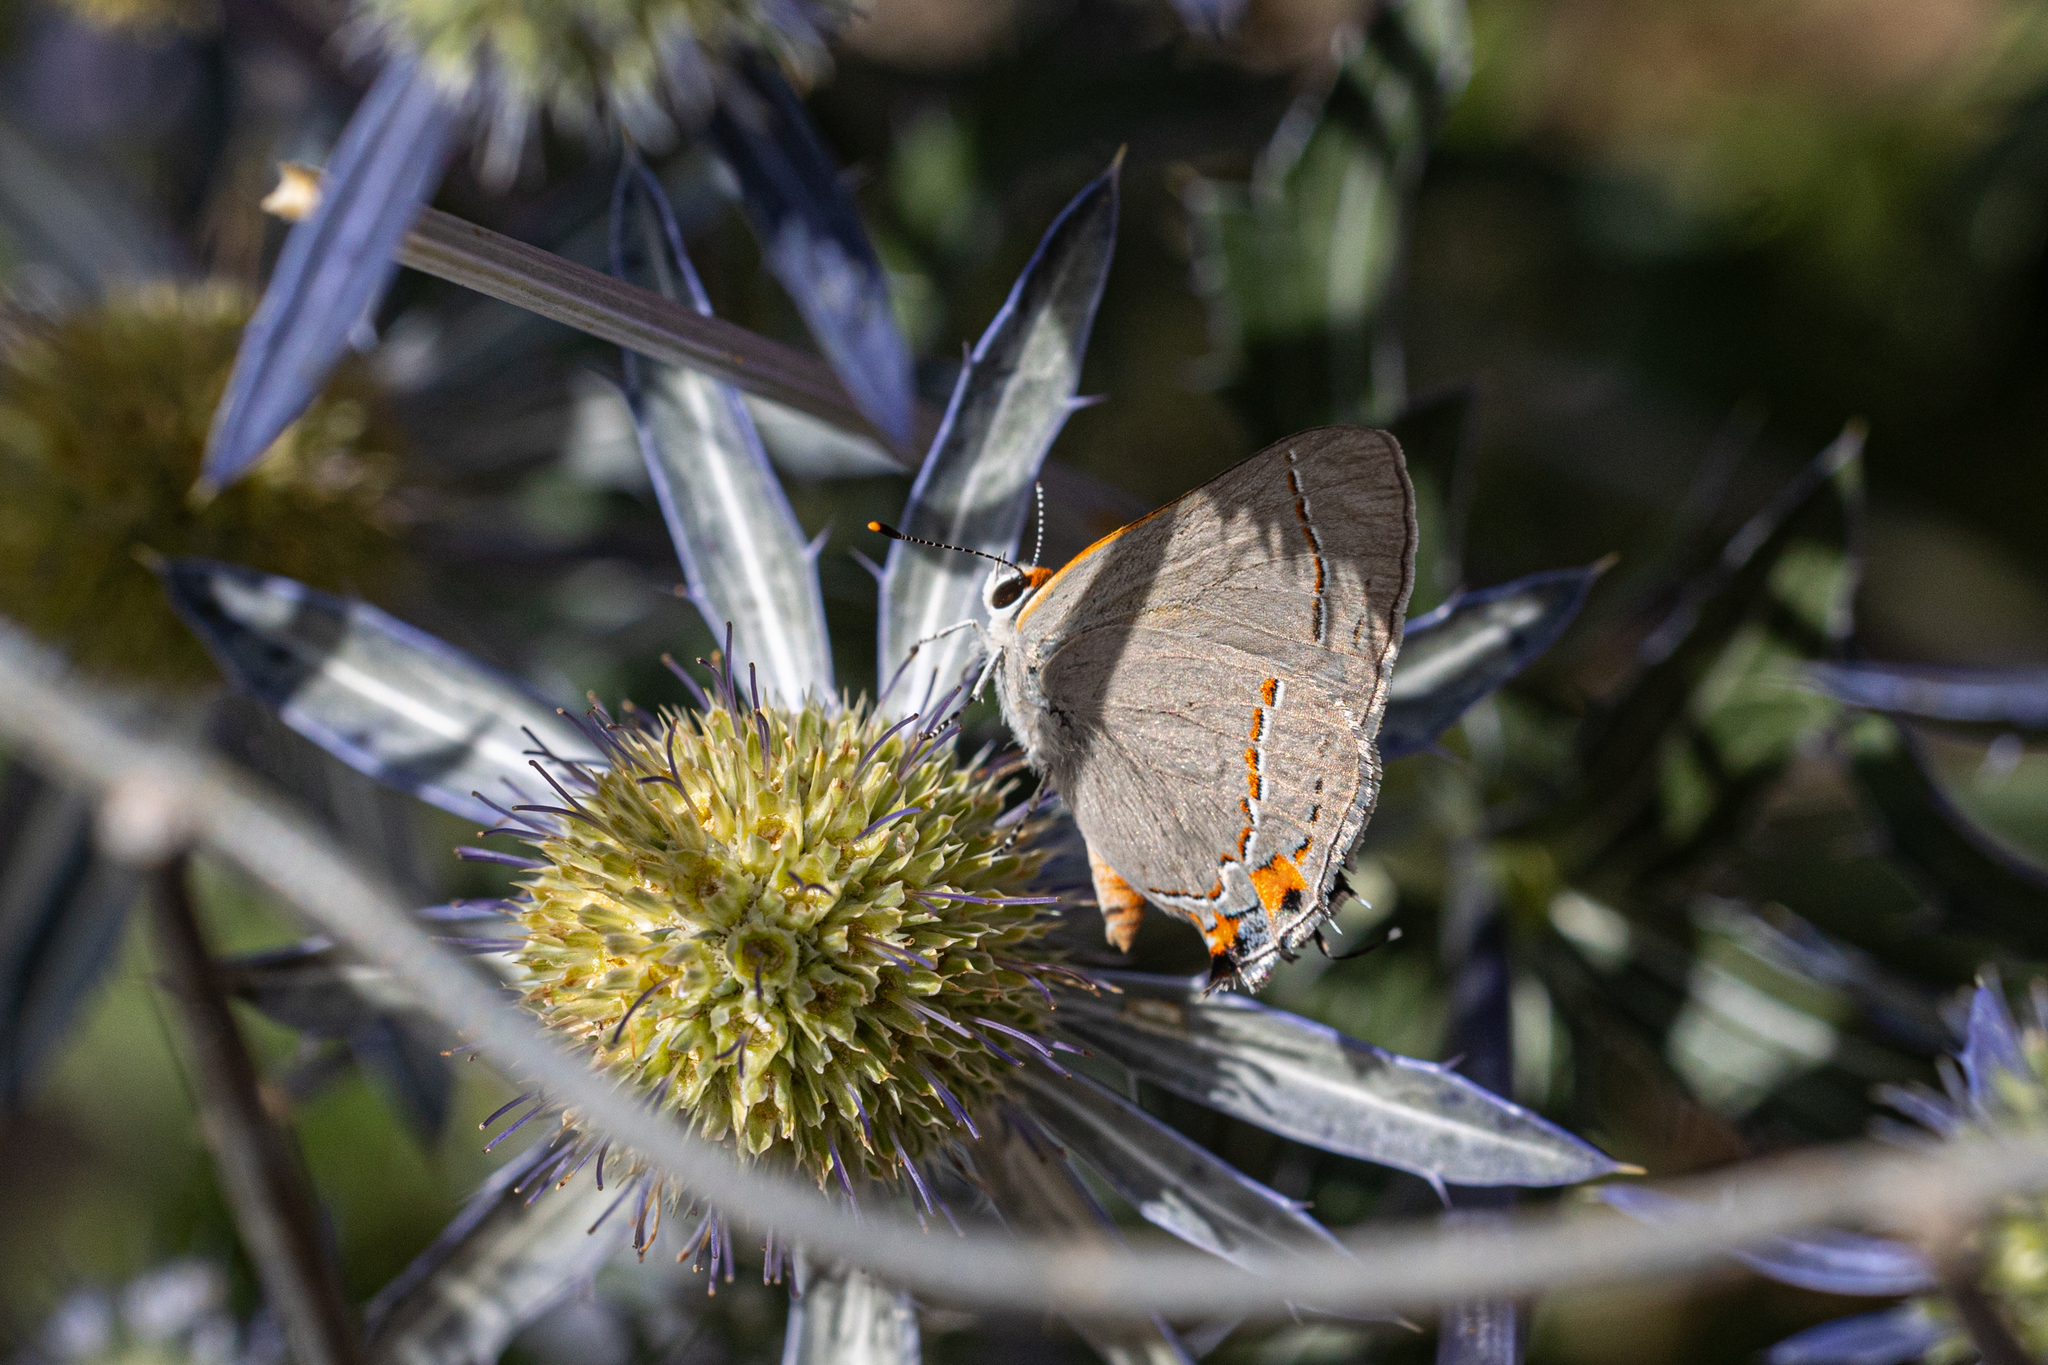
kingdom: Animalia
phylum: Arthropoda
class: Insecta
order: Lepidoptera
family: Lycaenidae
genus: Strymon
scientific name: Strymon melinus
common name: Gray hairstreak
